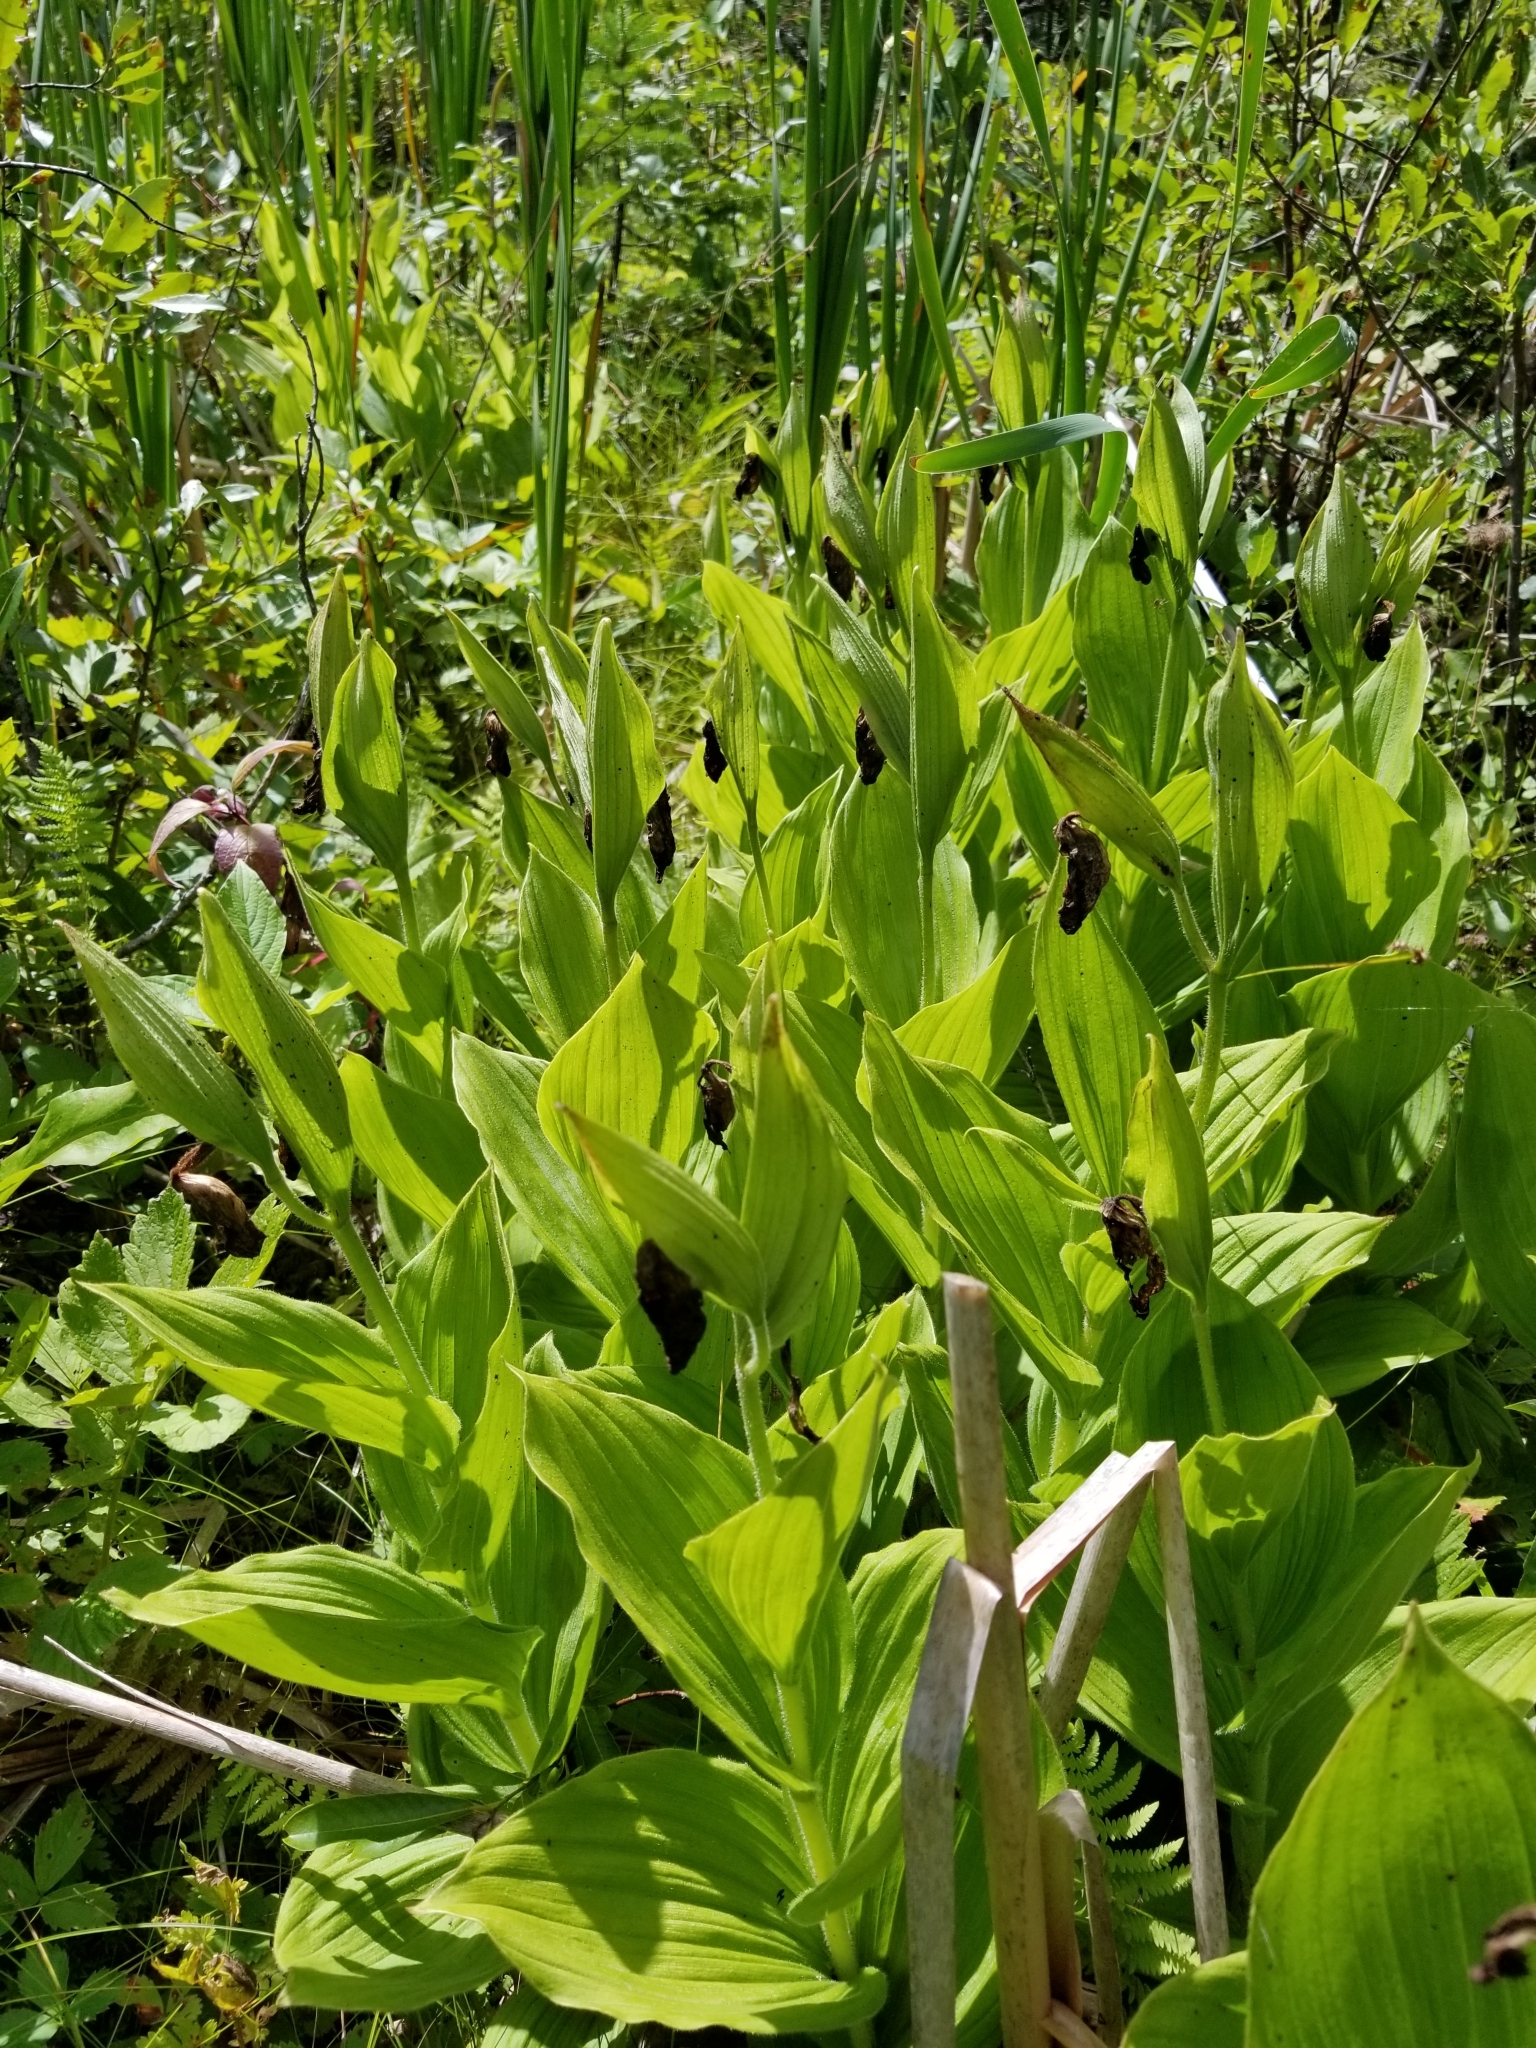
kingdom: Plantae
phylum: Tracheophyta
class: Liliopsida
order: Asparagales
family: Orchidaceae
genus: Cypripedium
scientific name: Cypripedium reginae
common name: Queen lady's-slipper
